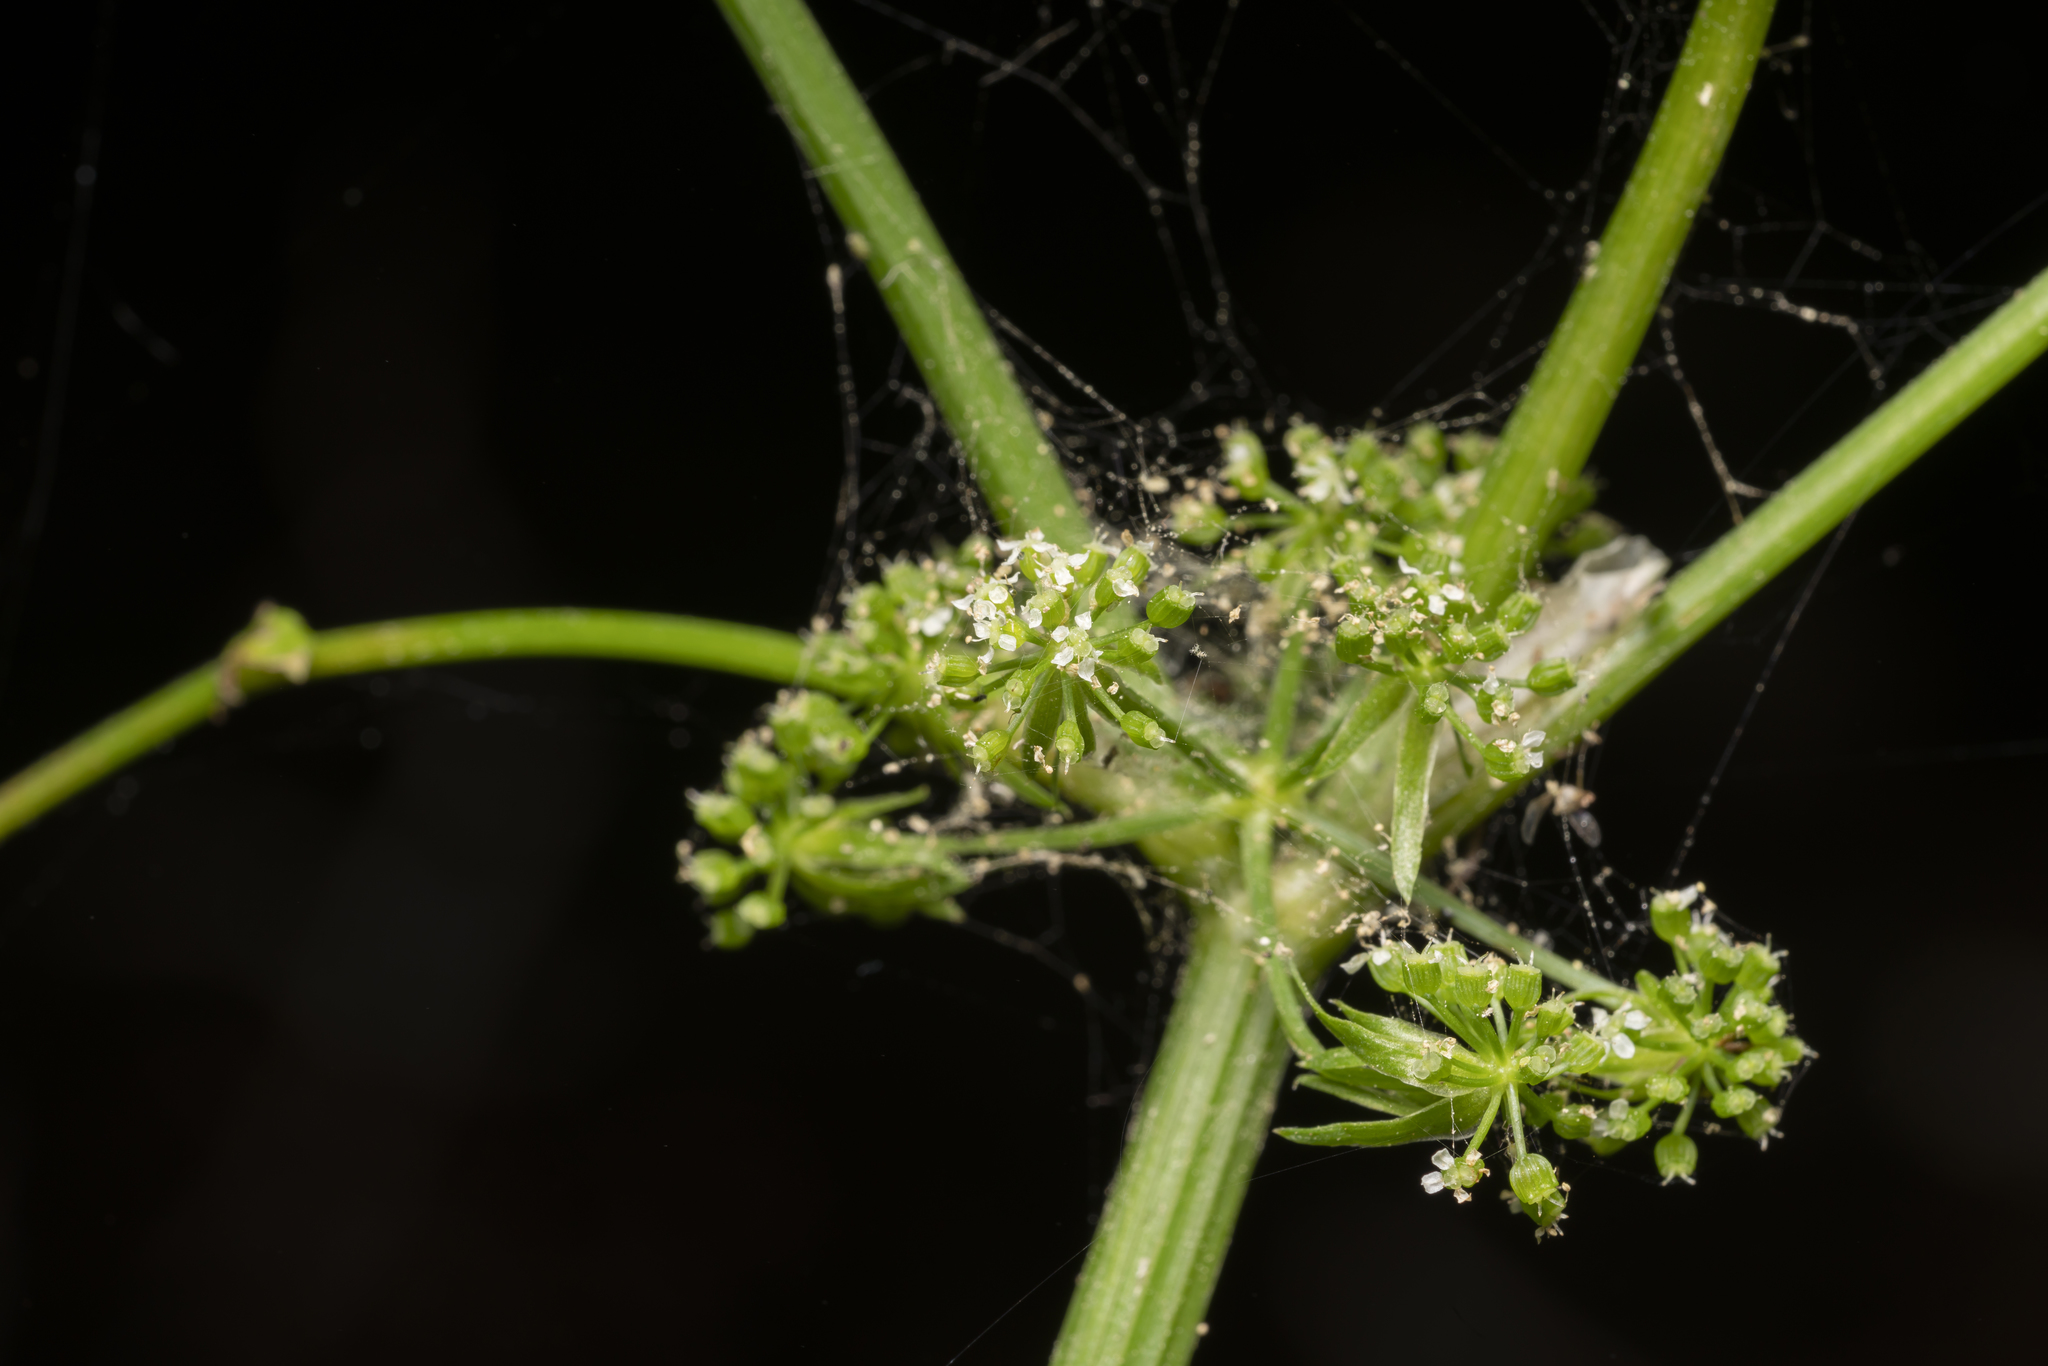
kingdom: Plantae
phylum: Tracheophyta
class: Magnoliopsida
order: Apiales
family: Apiaceae
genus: Helosciadium
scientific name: Helosciadium nodiflorum
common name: Fool's-watercress
